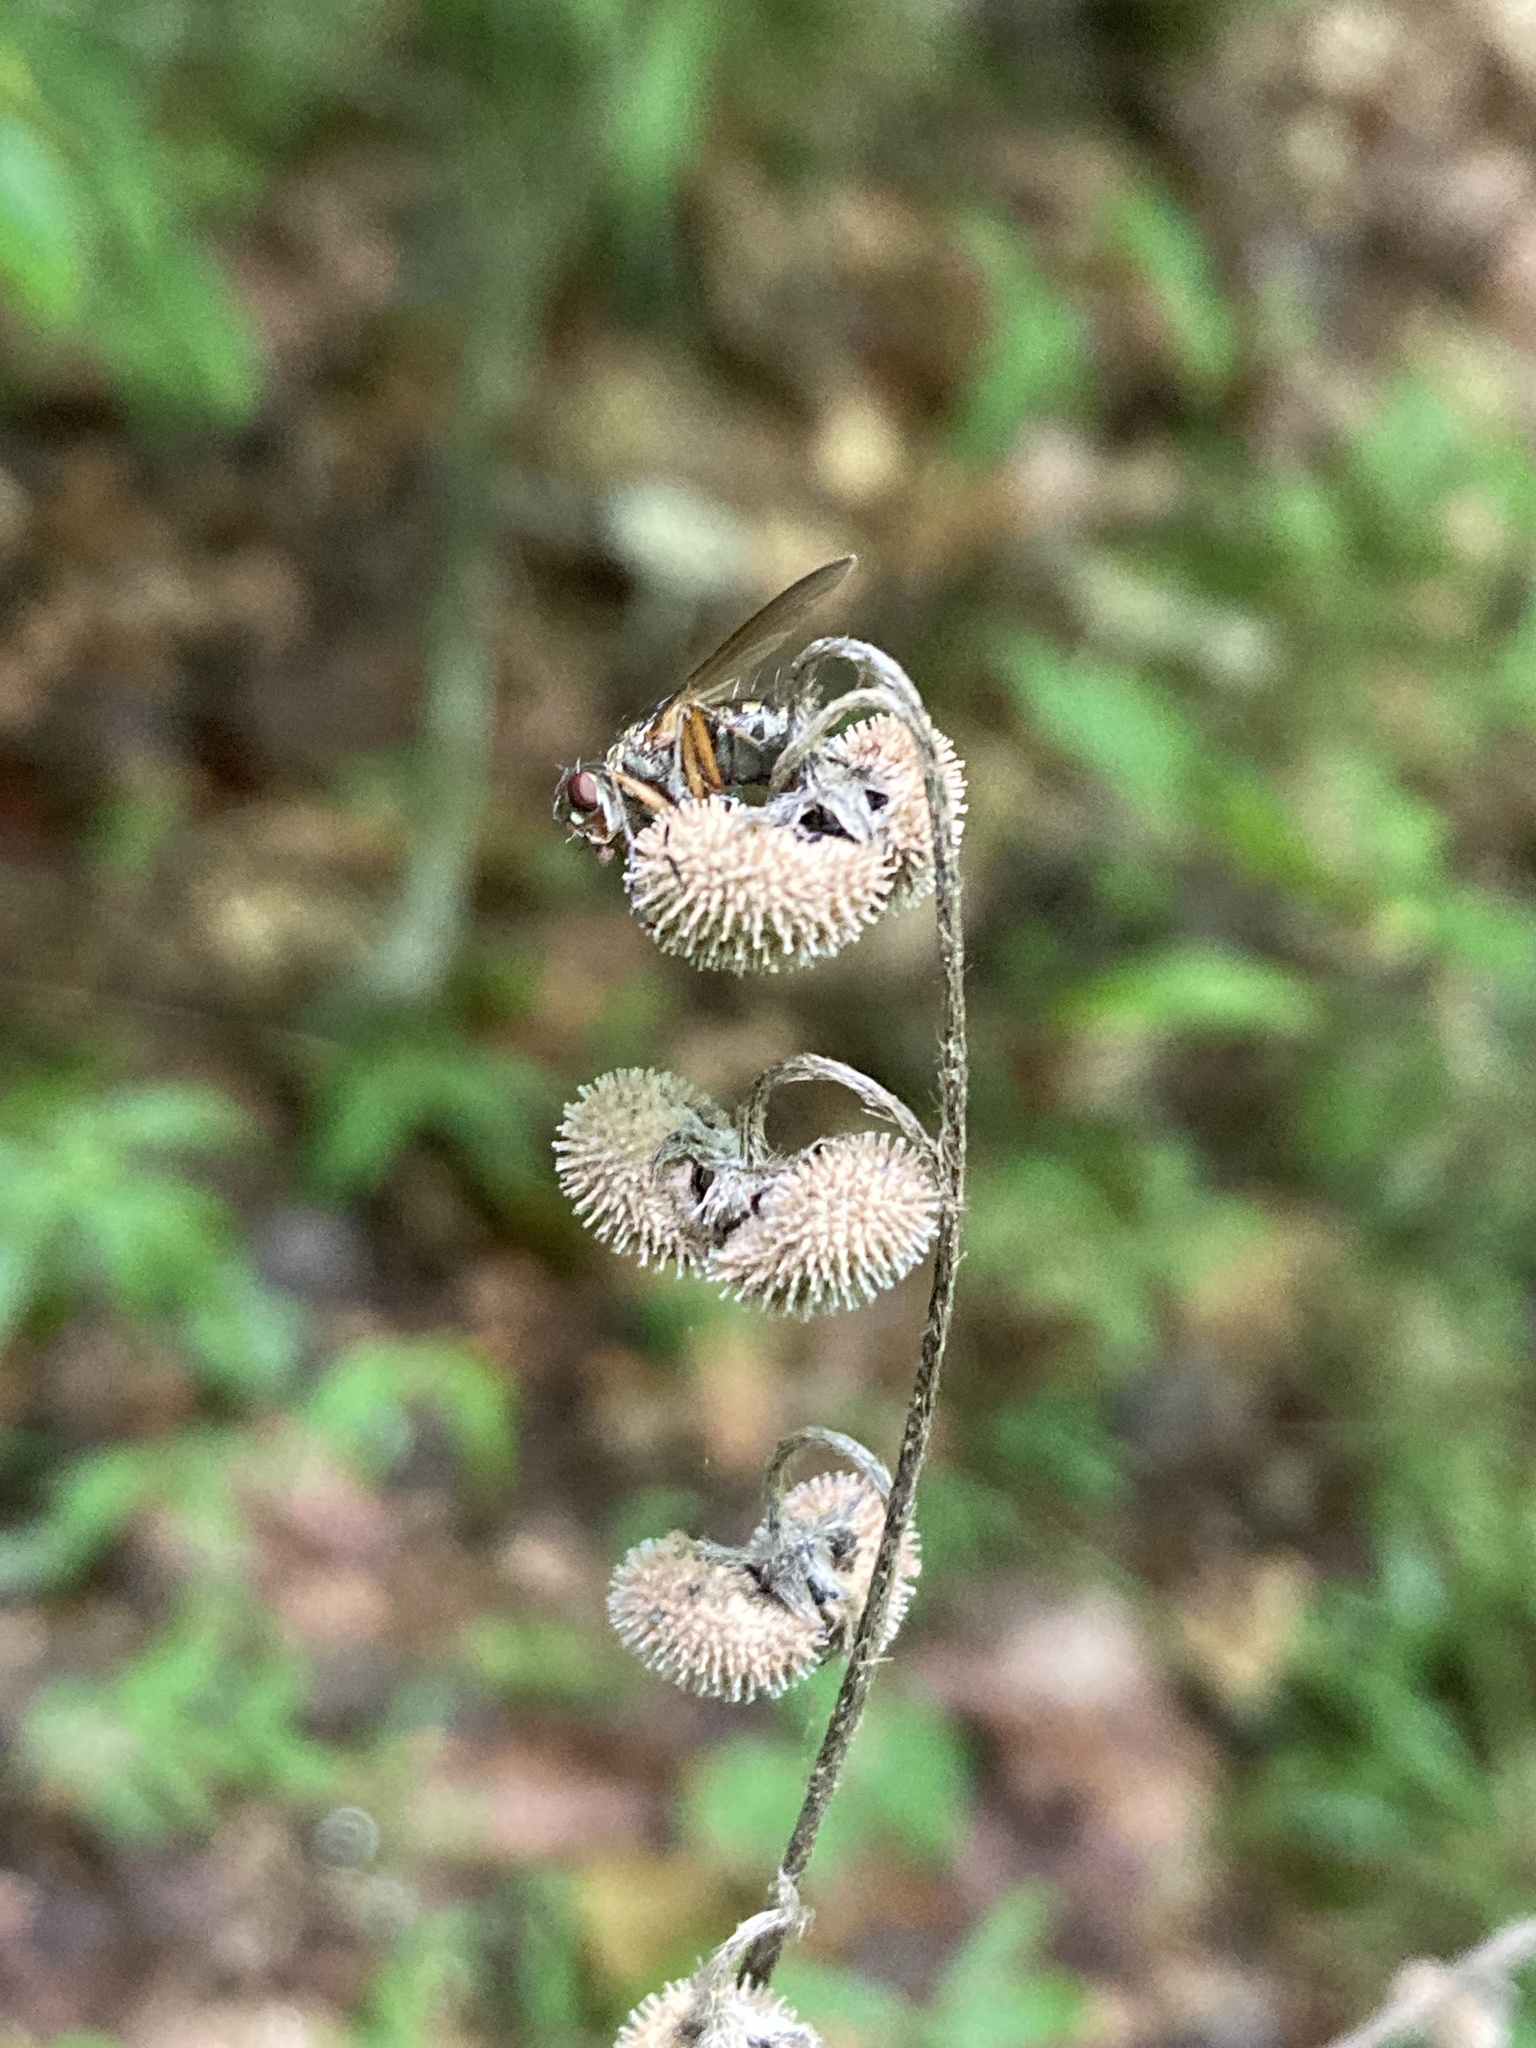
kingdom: Plantae
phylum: Tracheophyta
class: Magnoliopsida
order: Boraginales
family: Boraginaceae
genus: Andersonglossum
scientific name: Andersonglossum virginianum
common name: Wild comfrey
